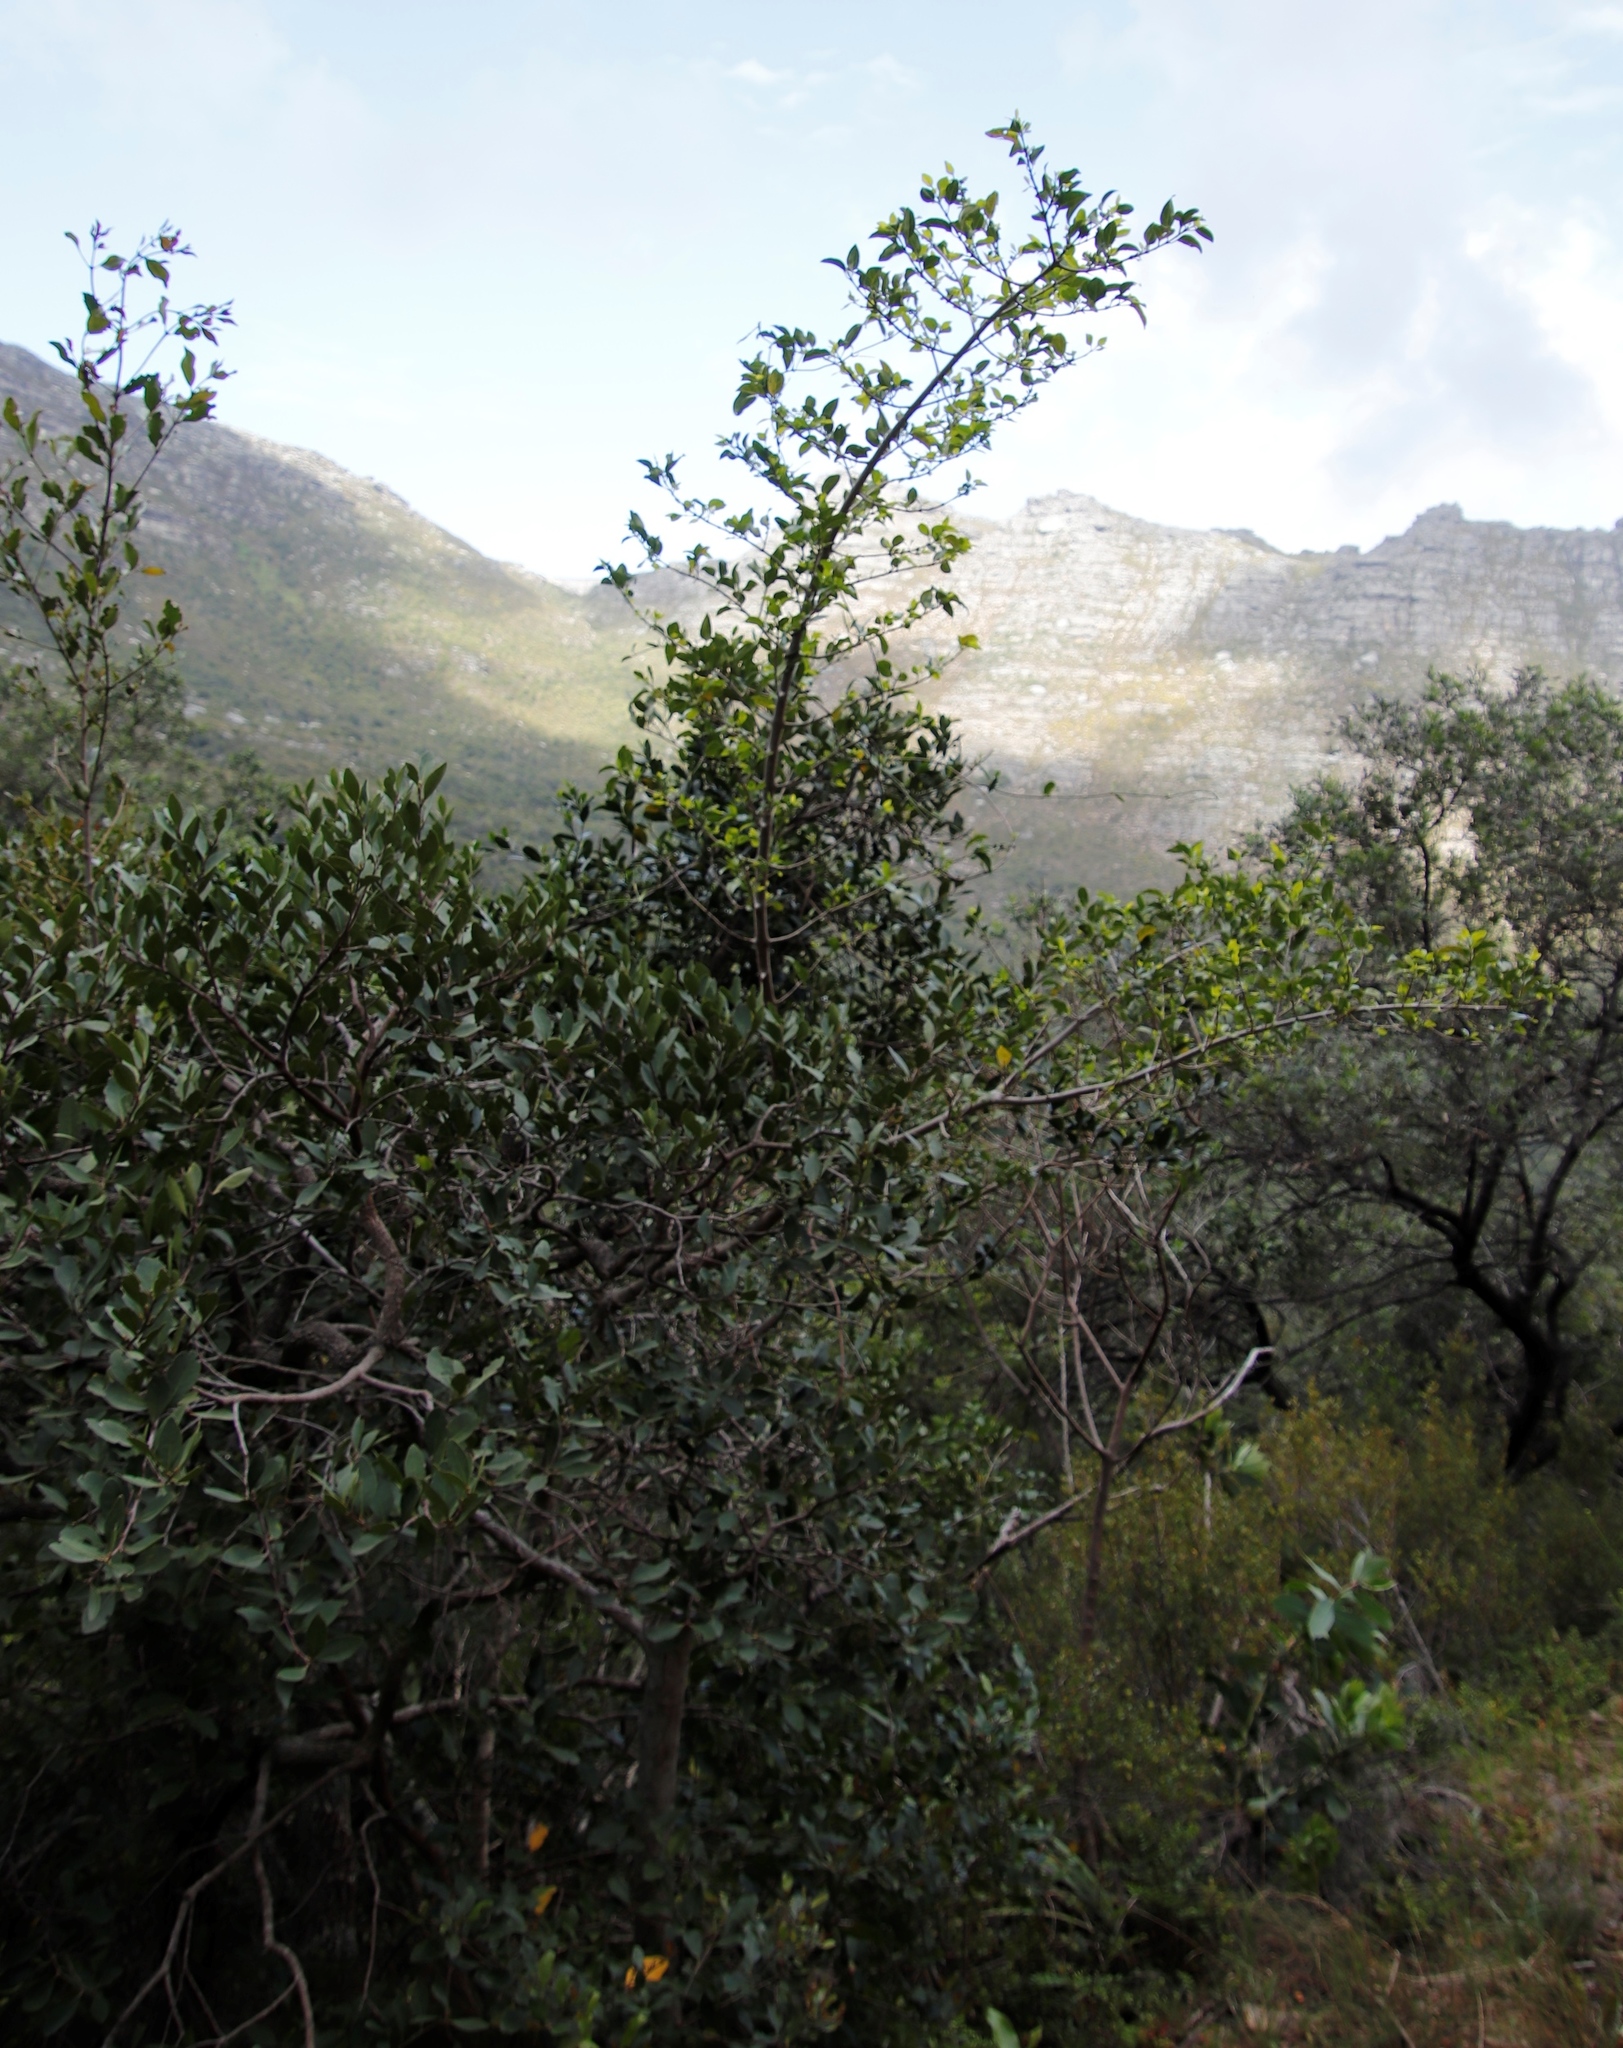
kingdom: Plantae
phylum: Tracheophyta
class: Magnoliopsida
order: Celastrales
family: Celastraceae
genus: Gymnosporia
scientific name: Gymnosporia laurina
